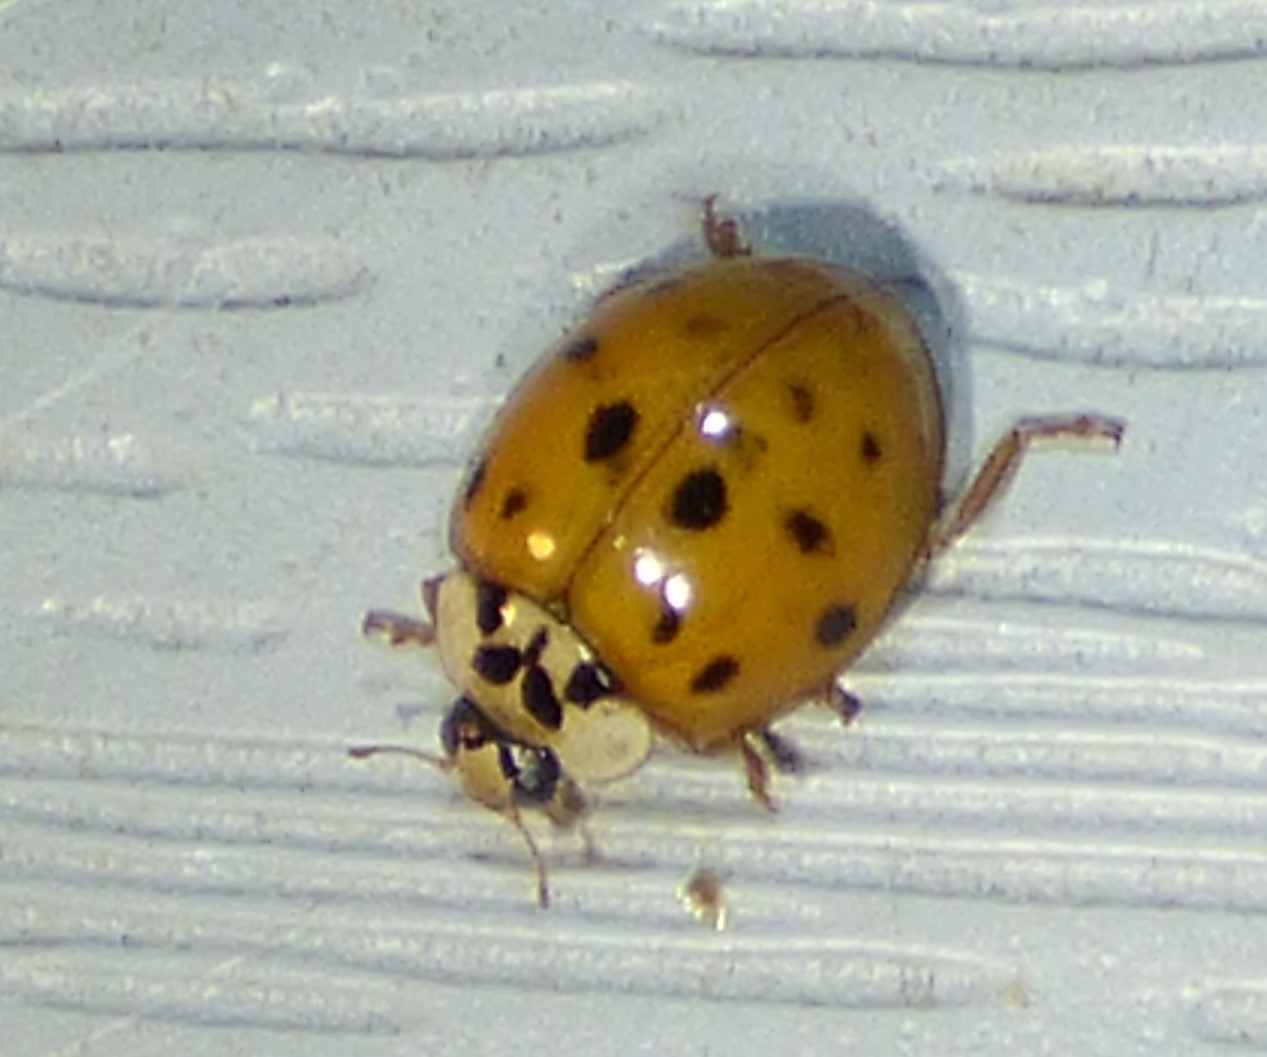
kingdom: Animalia
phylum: Arthropoda
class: Insecta
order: Coleoptera
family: Coccinellidae
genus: Harmonia
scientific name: Harmonia axyridis
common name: Harlequin ladybird
